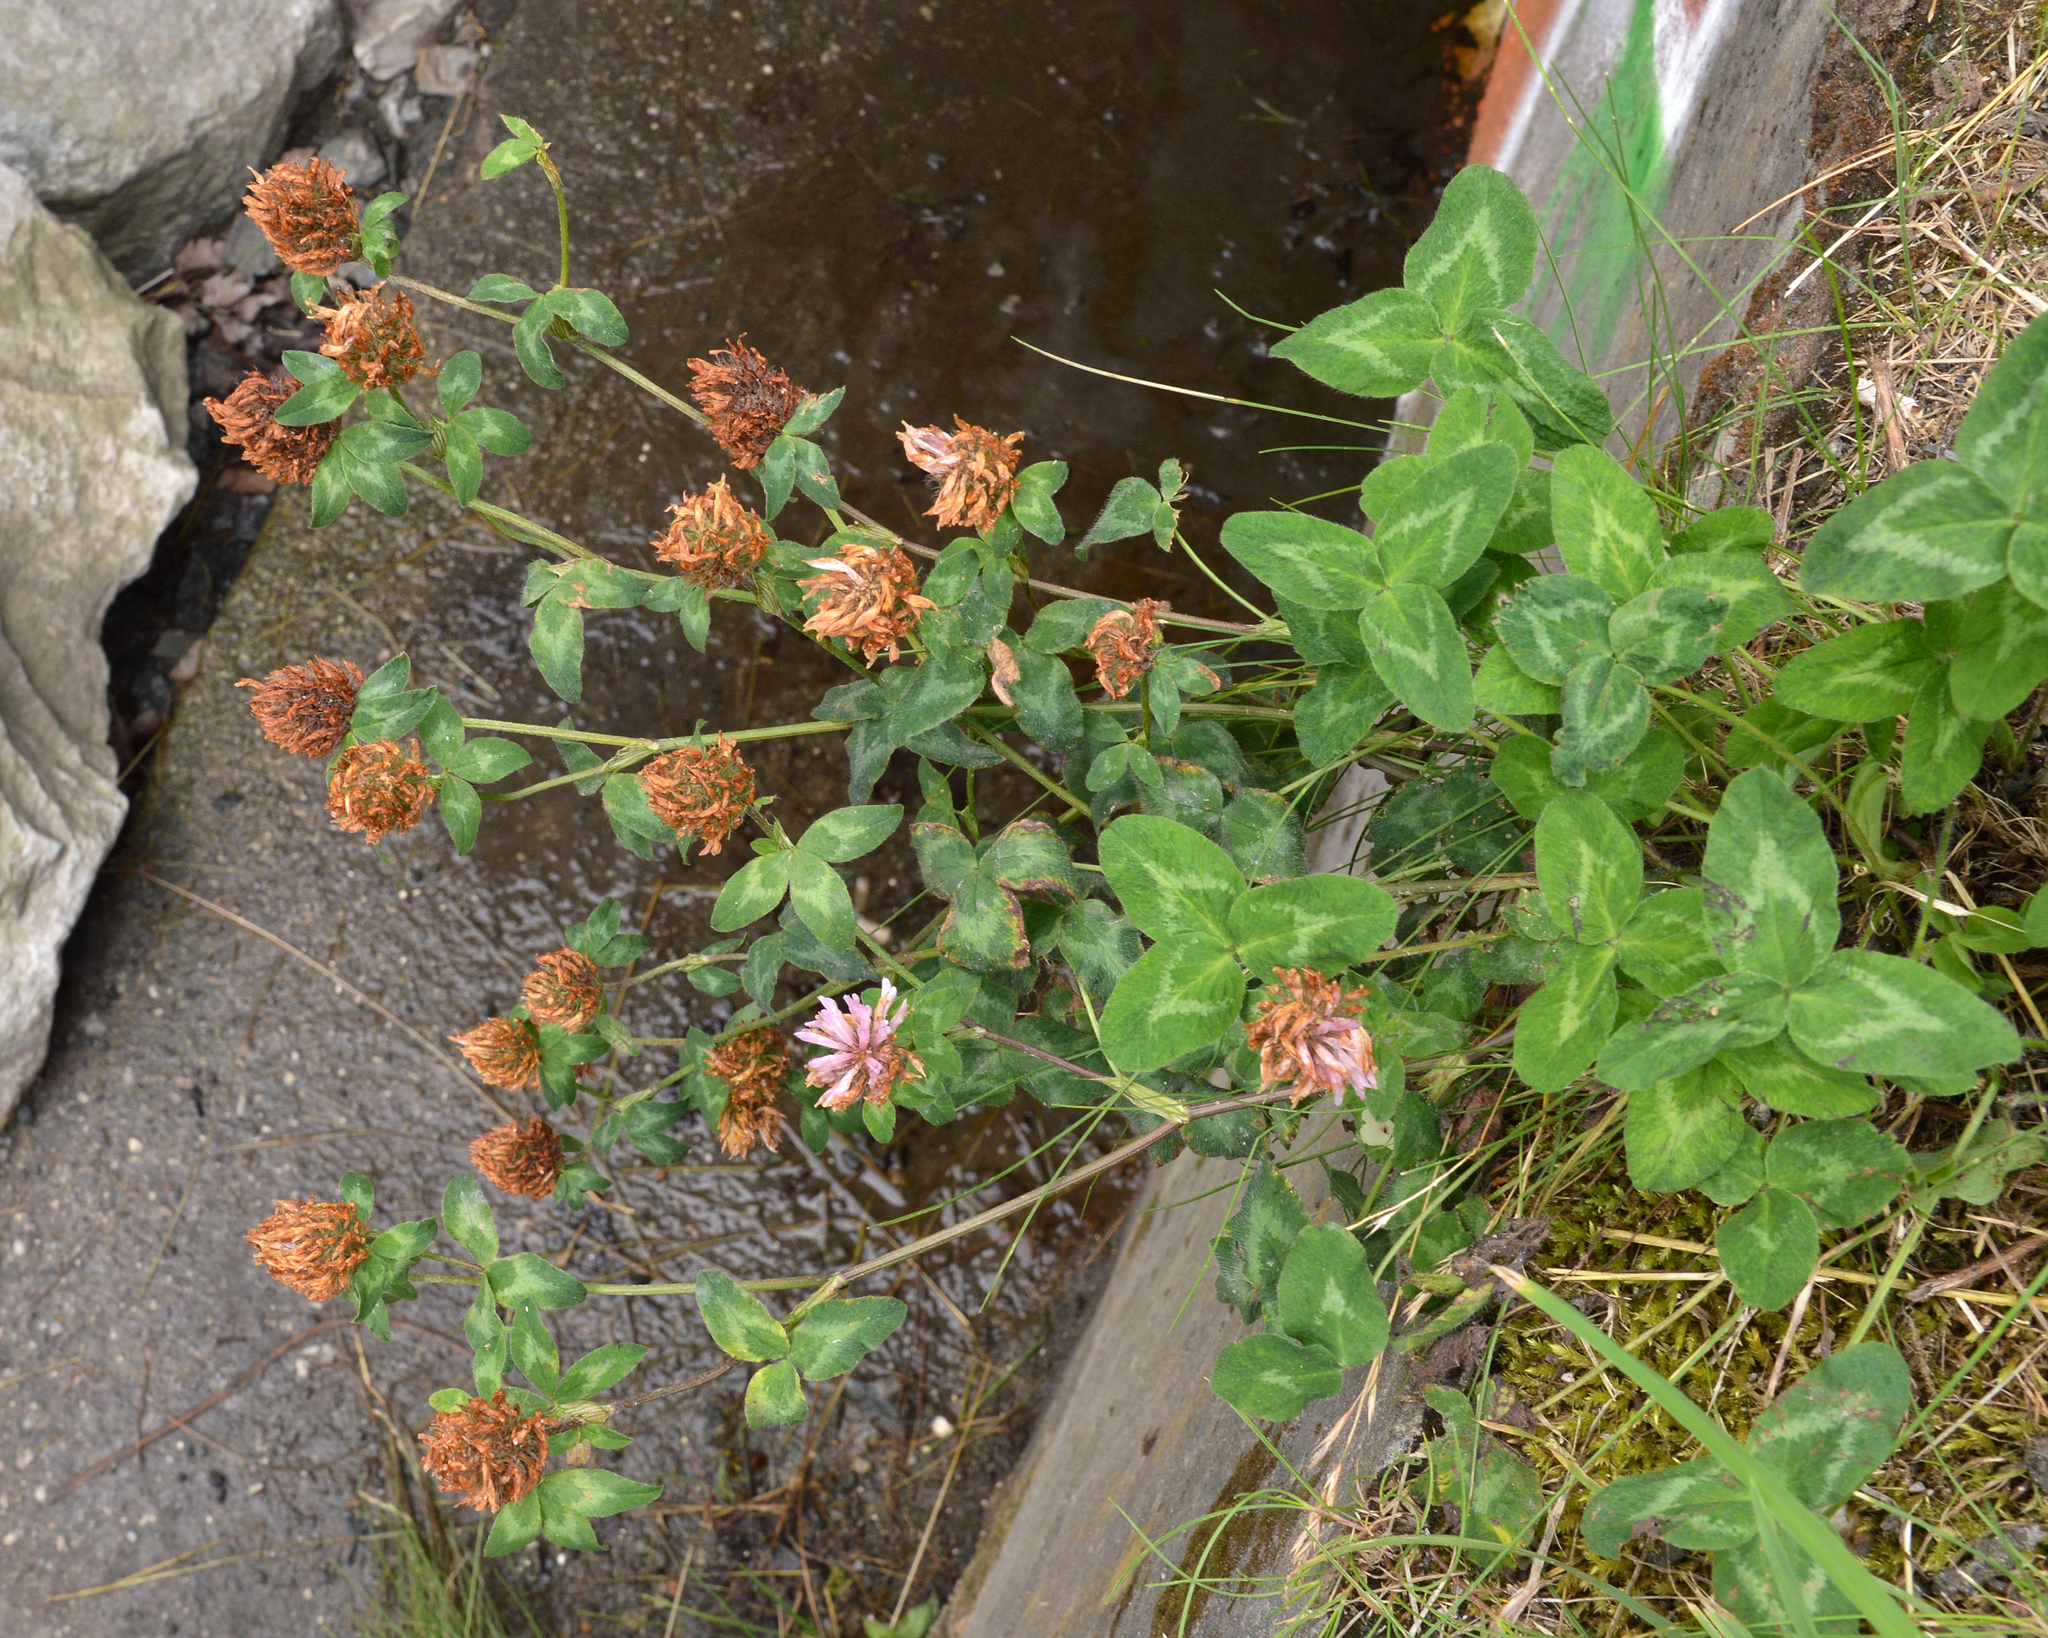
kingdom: Plantae
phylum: Tracheophyta
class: Magnoliopsida
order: Fabales
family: Fabaceae
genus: Trifolium
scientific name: Trifolium pratense
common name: Red clover
